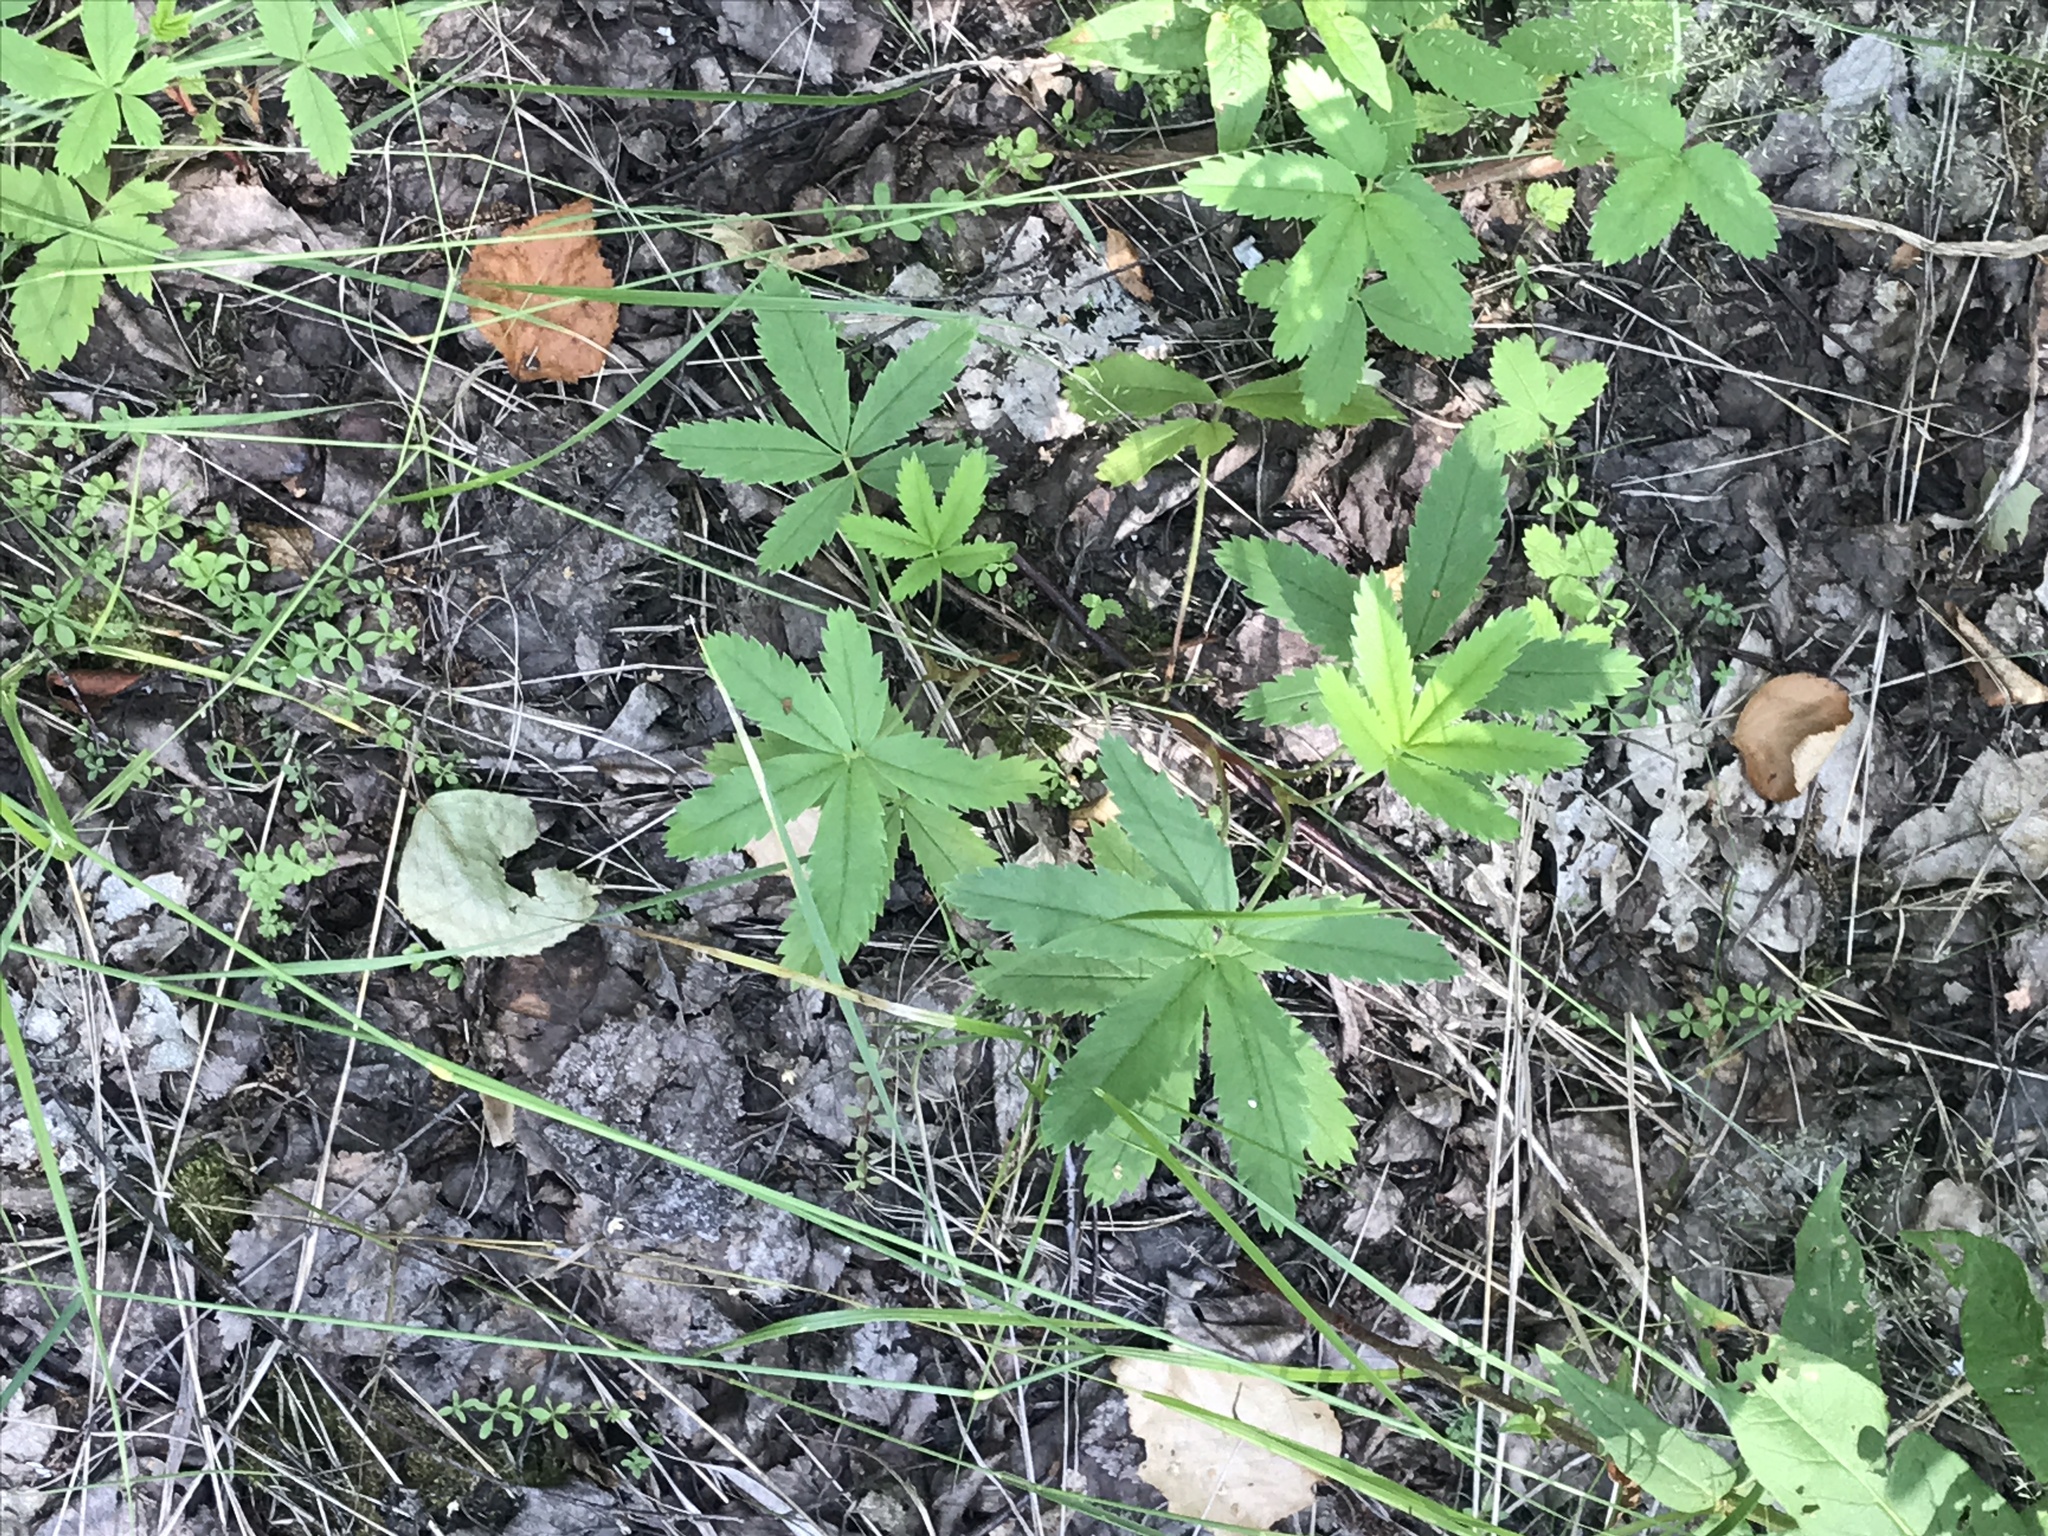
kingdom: Plantae
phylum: Tracheophyta
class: Magnoliopsida
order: Rosales
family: Rosaceae
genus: Comarum
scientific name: Comarum palustre
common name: Marsh cinquefoil
